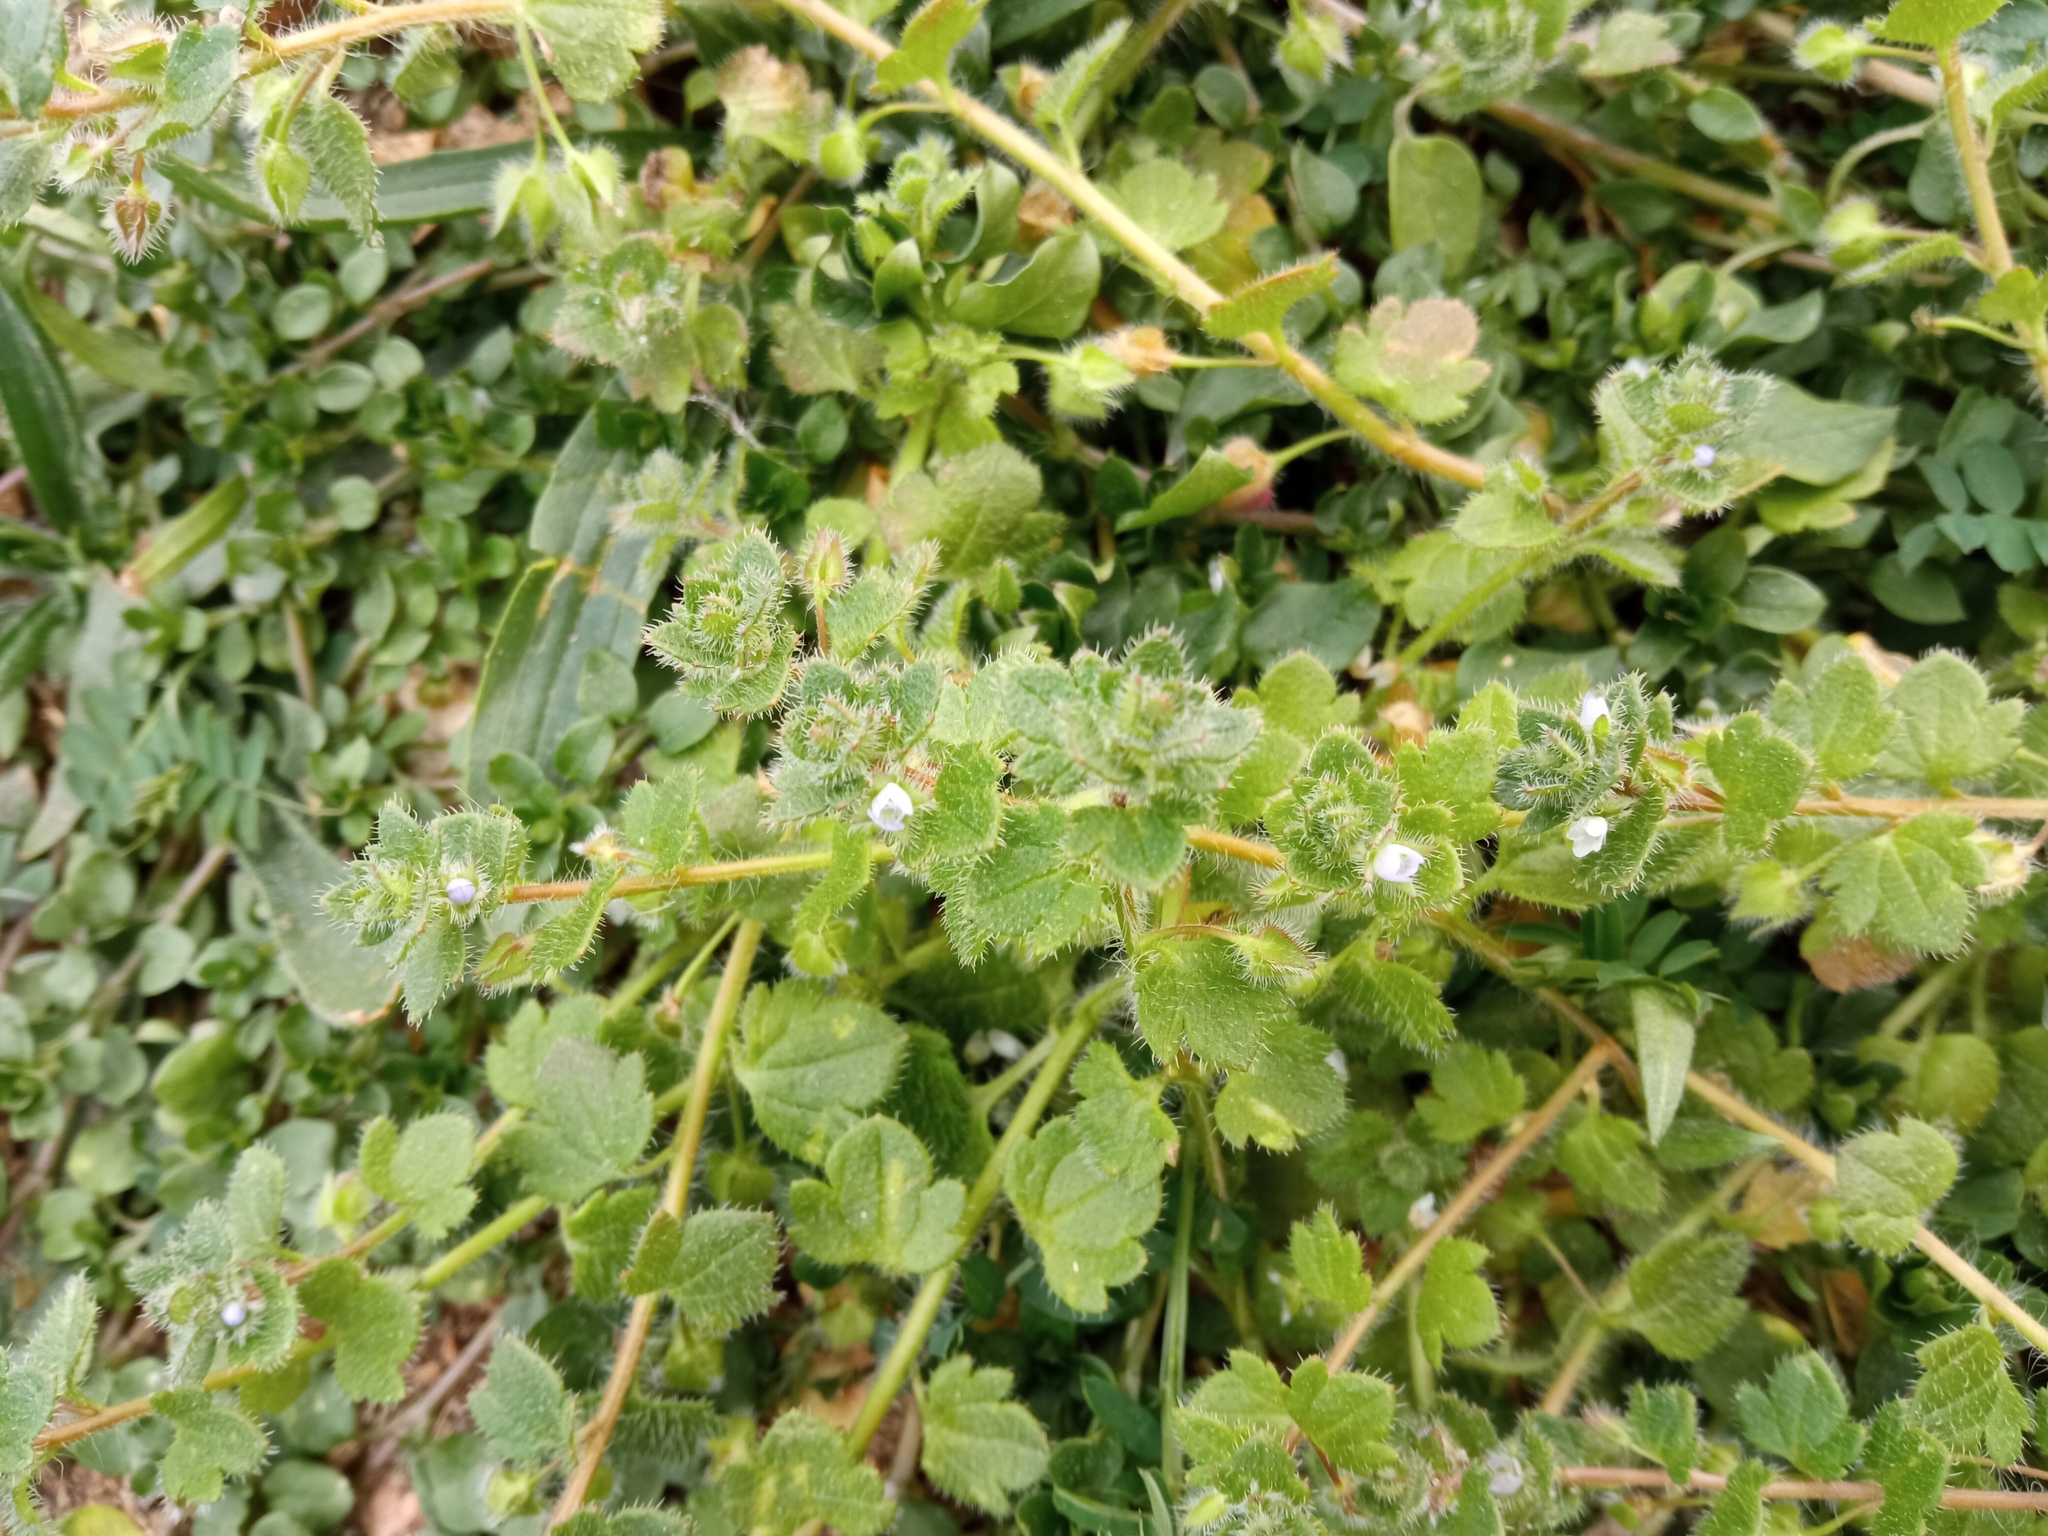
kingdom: Plantae
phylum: Tracheophyta
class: Magnoliopsida
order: Lamiales
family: Plantaginaceae
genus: Veronica
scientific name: Veronica hederifolia
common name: Ivy-leaved speedwell
